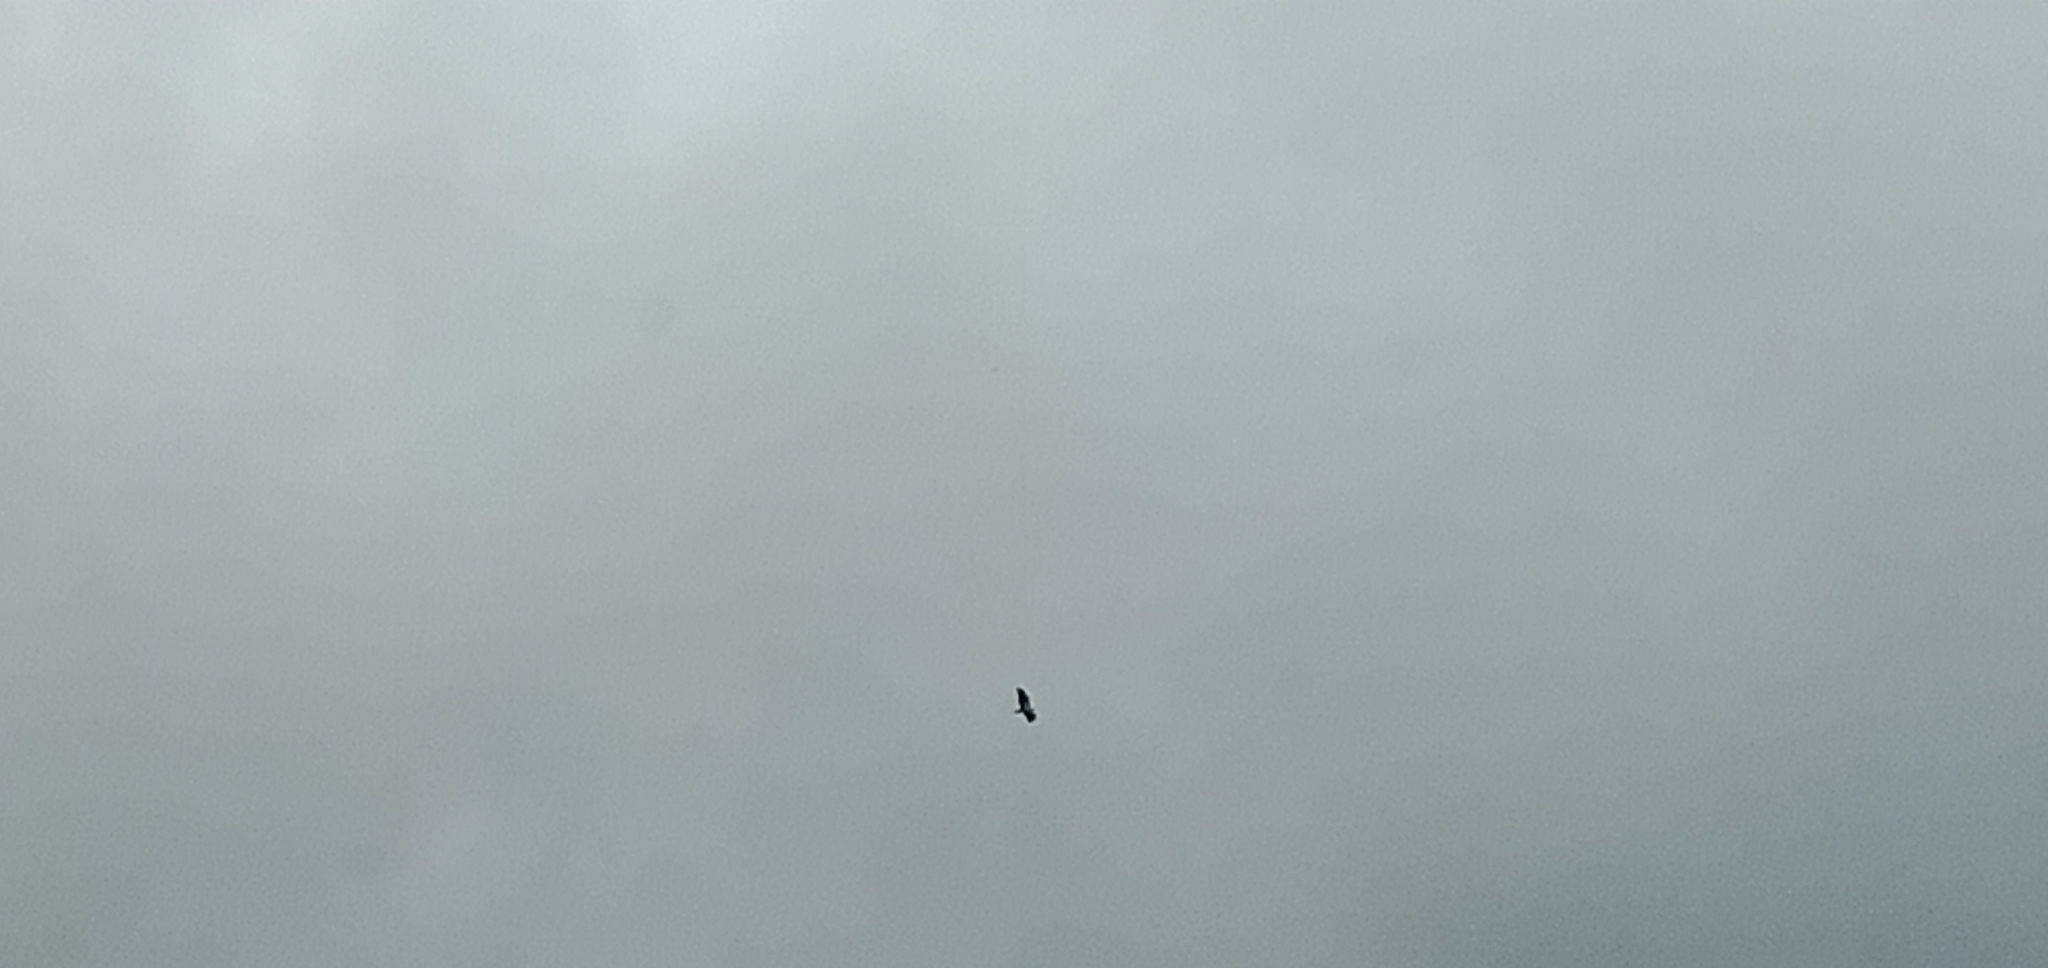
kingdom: Animalia
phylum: Chordata
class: Aves
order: Accipitriformes
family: Accipitridae
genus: Haliaeetus
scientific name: Haliaeetus leucogaster
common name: White-bellied sea eagle
